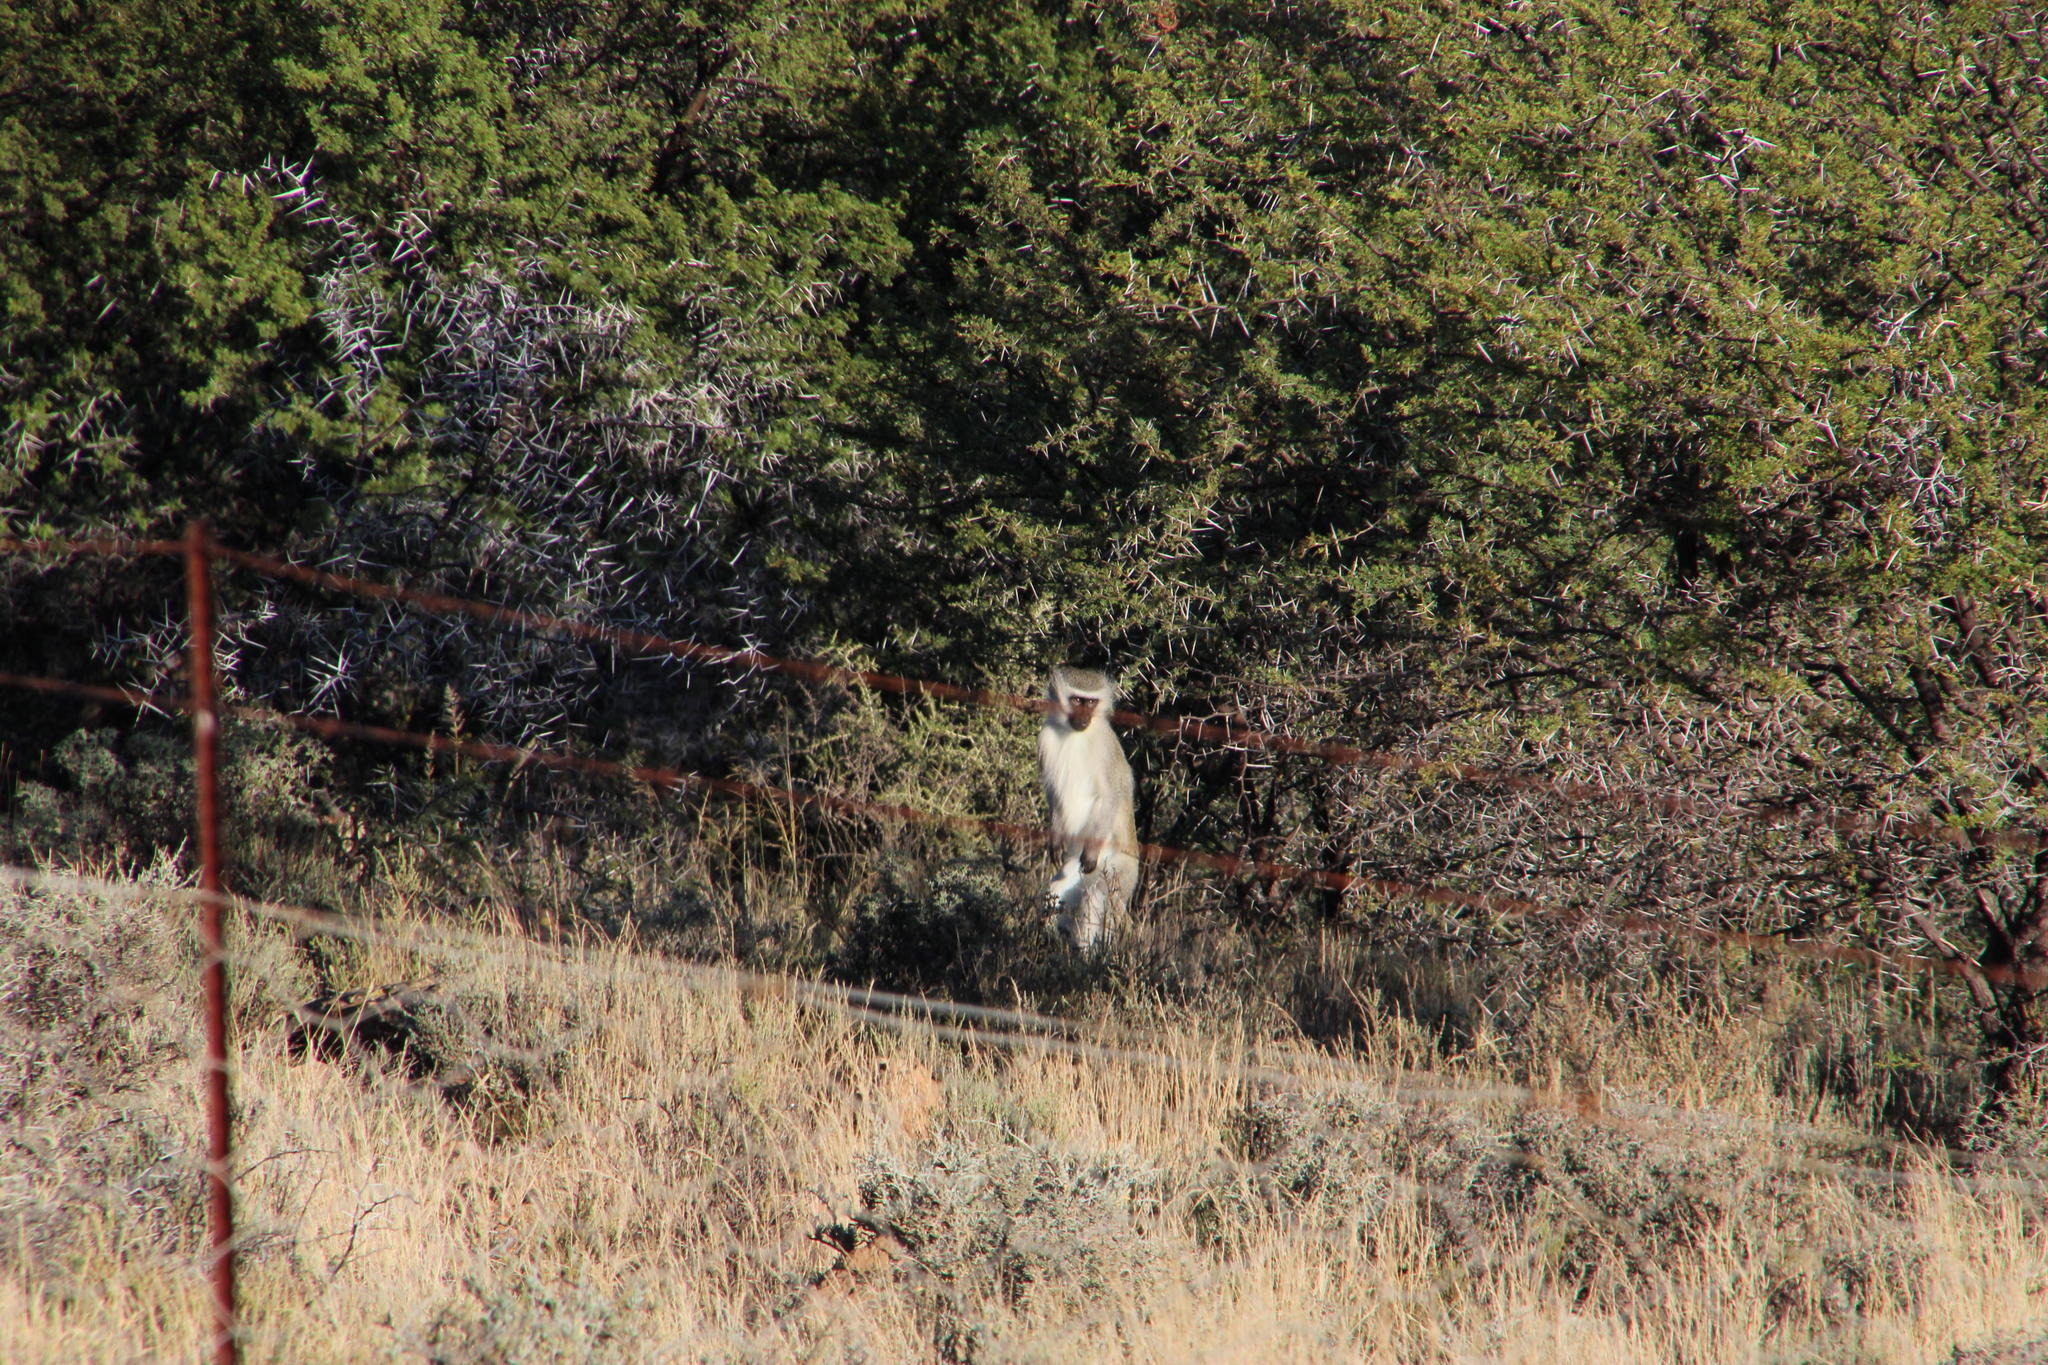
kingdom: Animalia
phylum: Chordata
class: Mammalia
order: Primates
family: Cercopithecidae
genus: Chlorocebus
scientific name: Chlorocebus pygerythrus
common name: Vervet monkey
